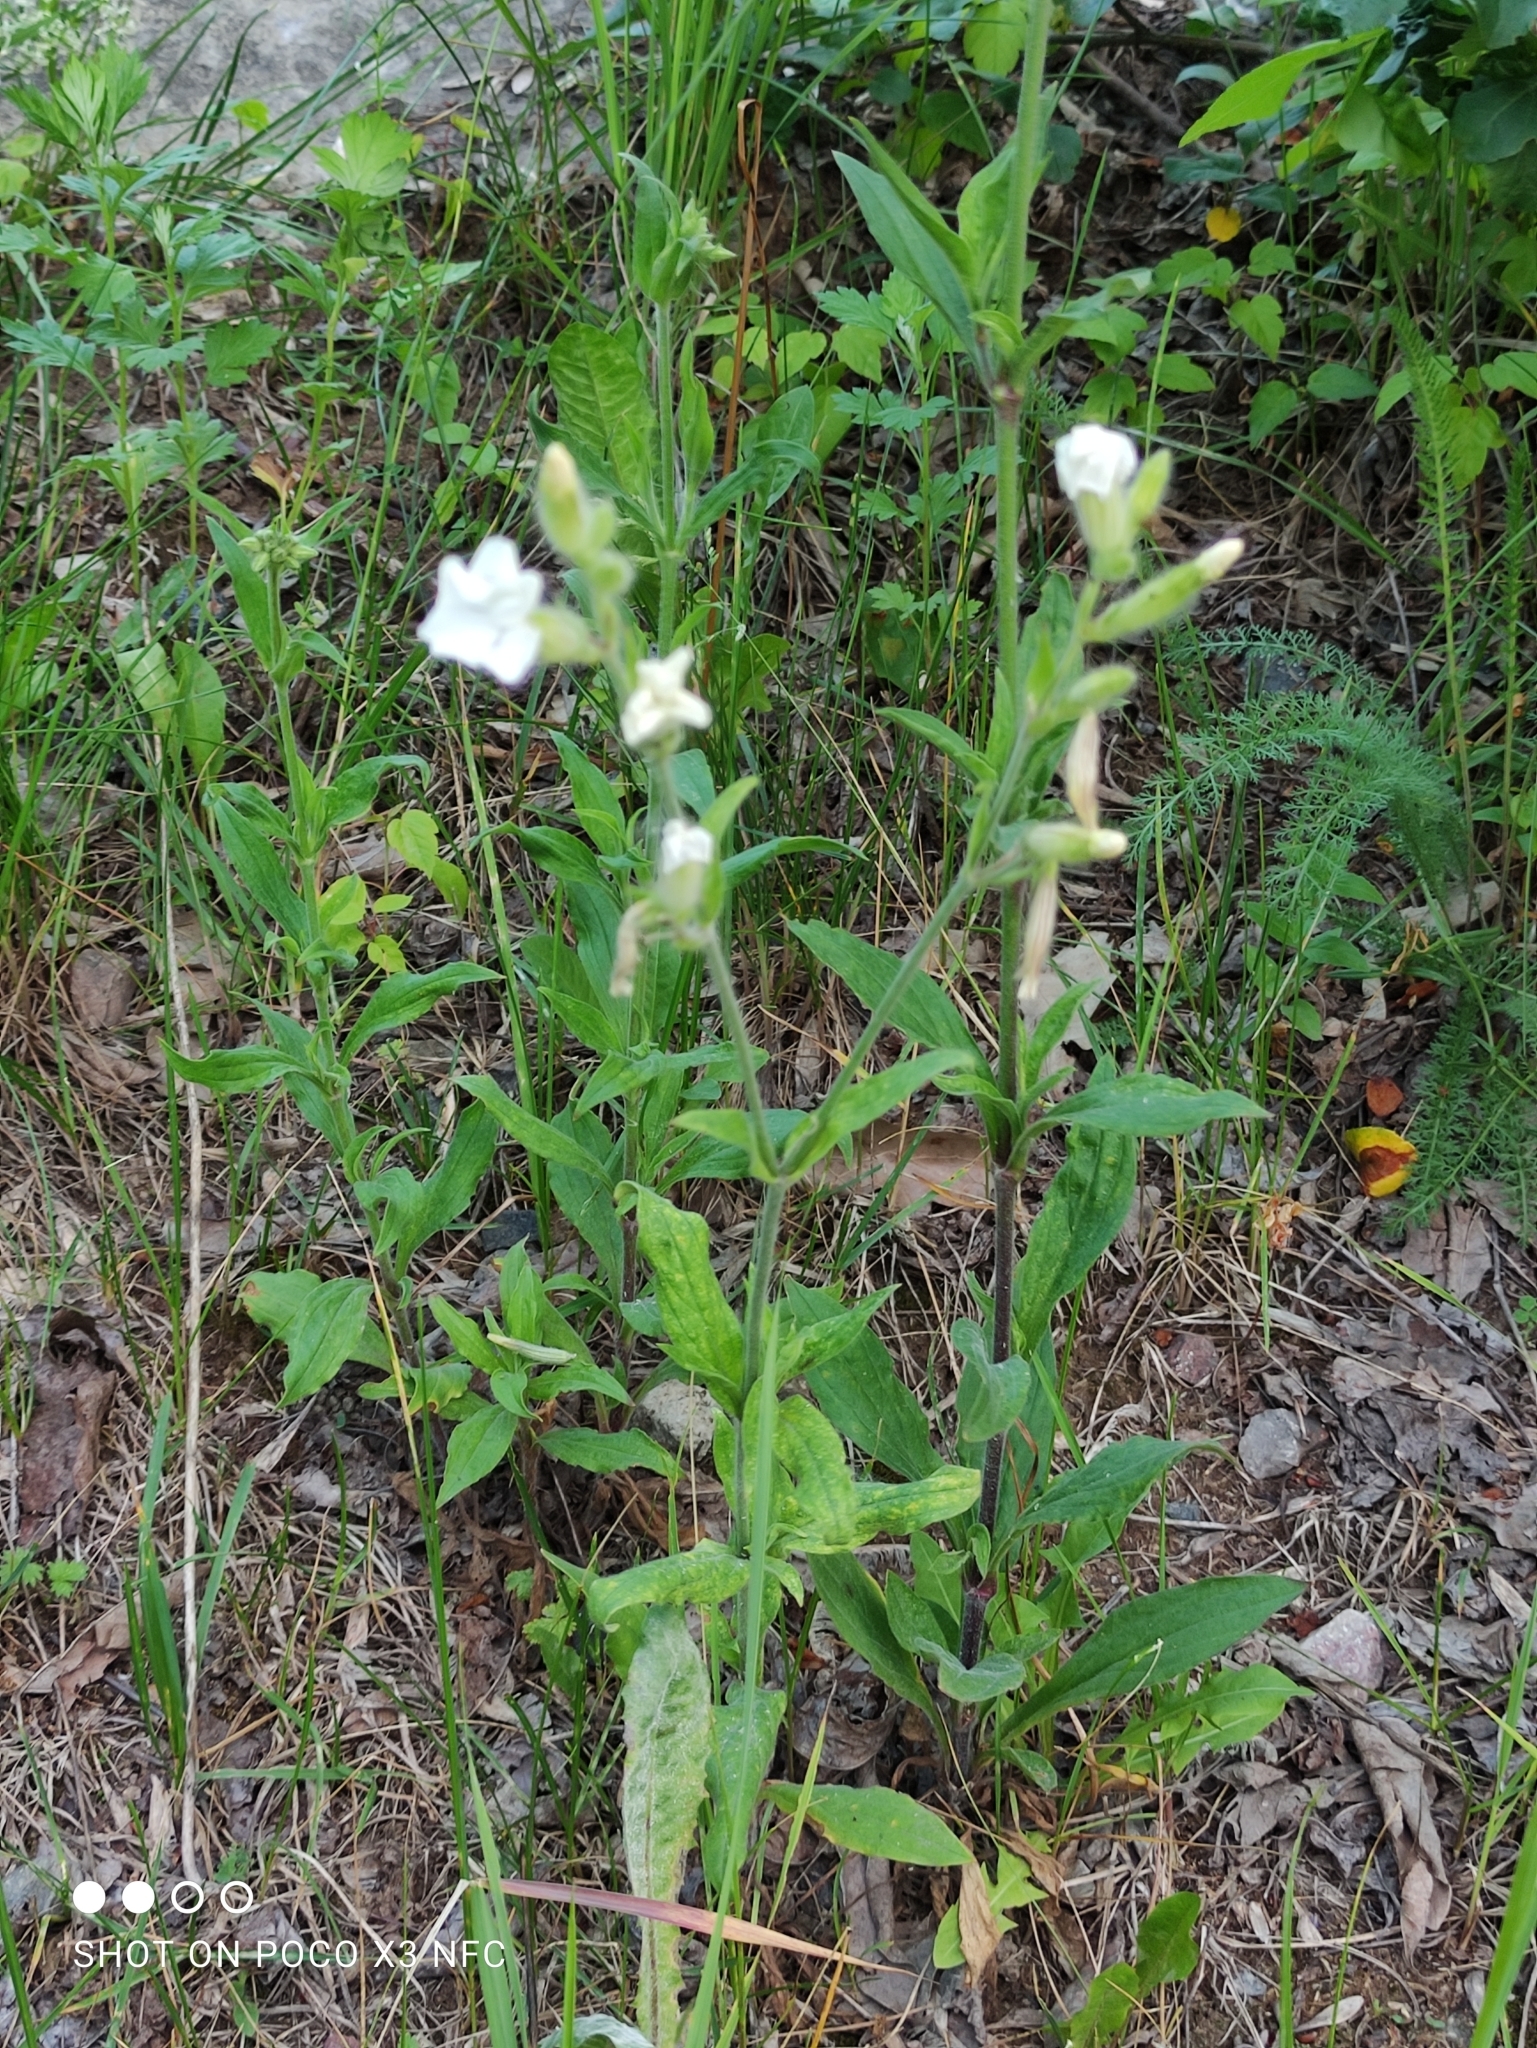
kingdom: Plantae
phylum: Tracheophyta
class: Magnoliopsida
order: Caryophyllales
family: Caryophyllaceae
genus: Silene
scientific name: Silene latifolia
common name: White campion
